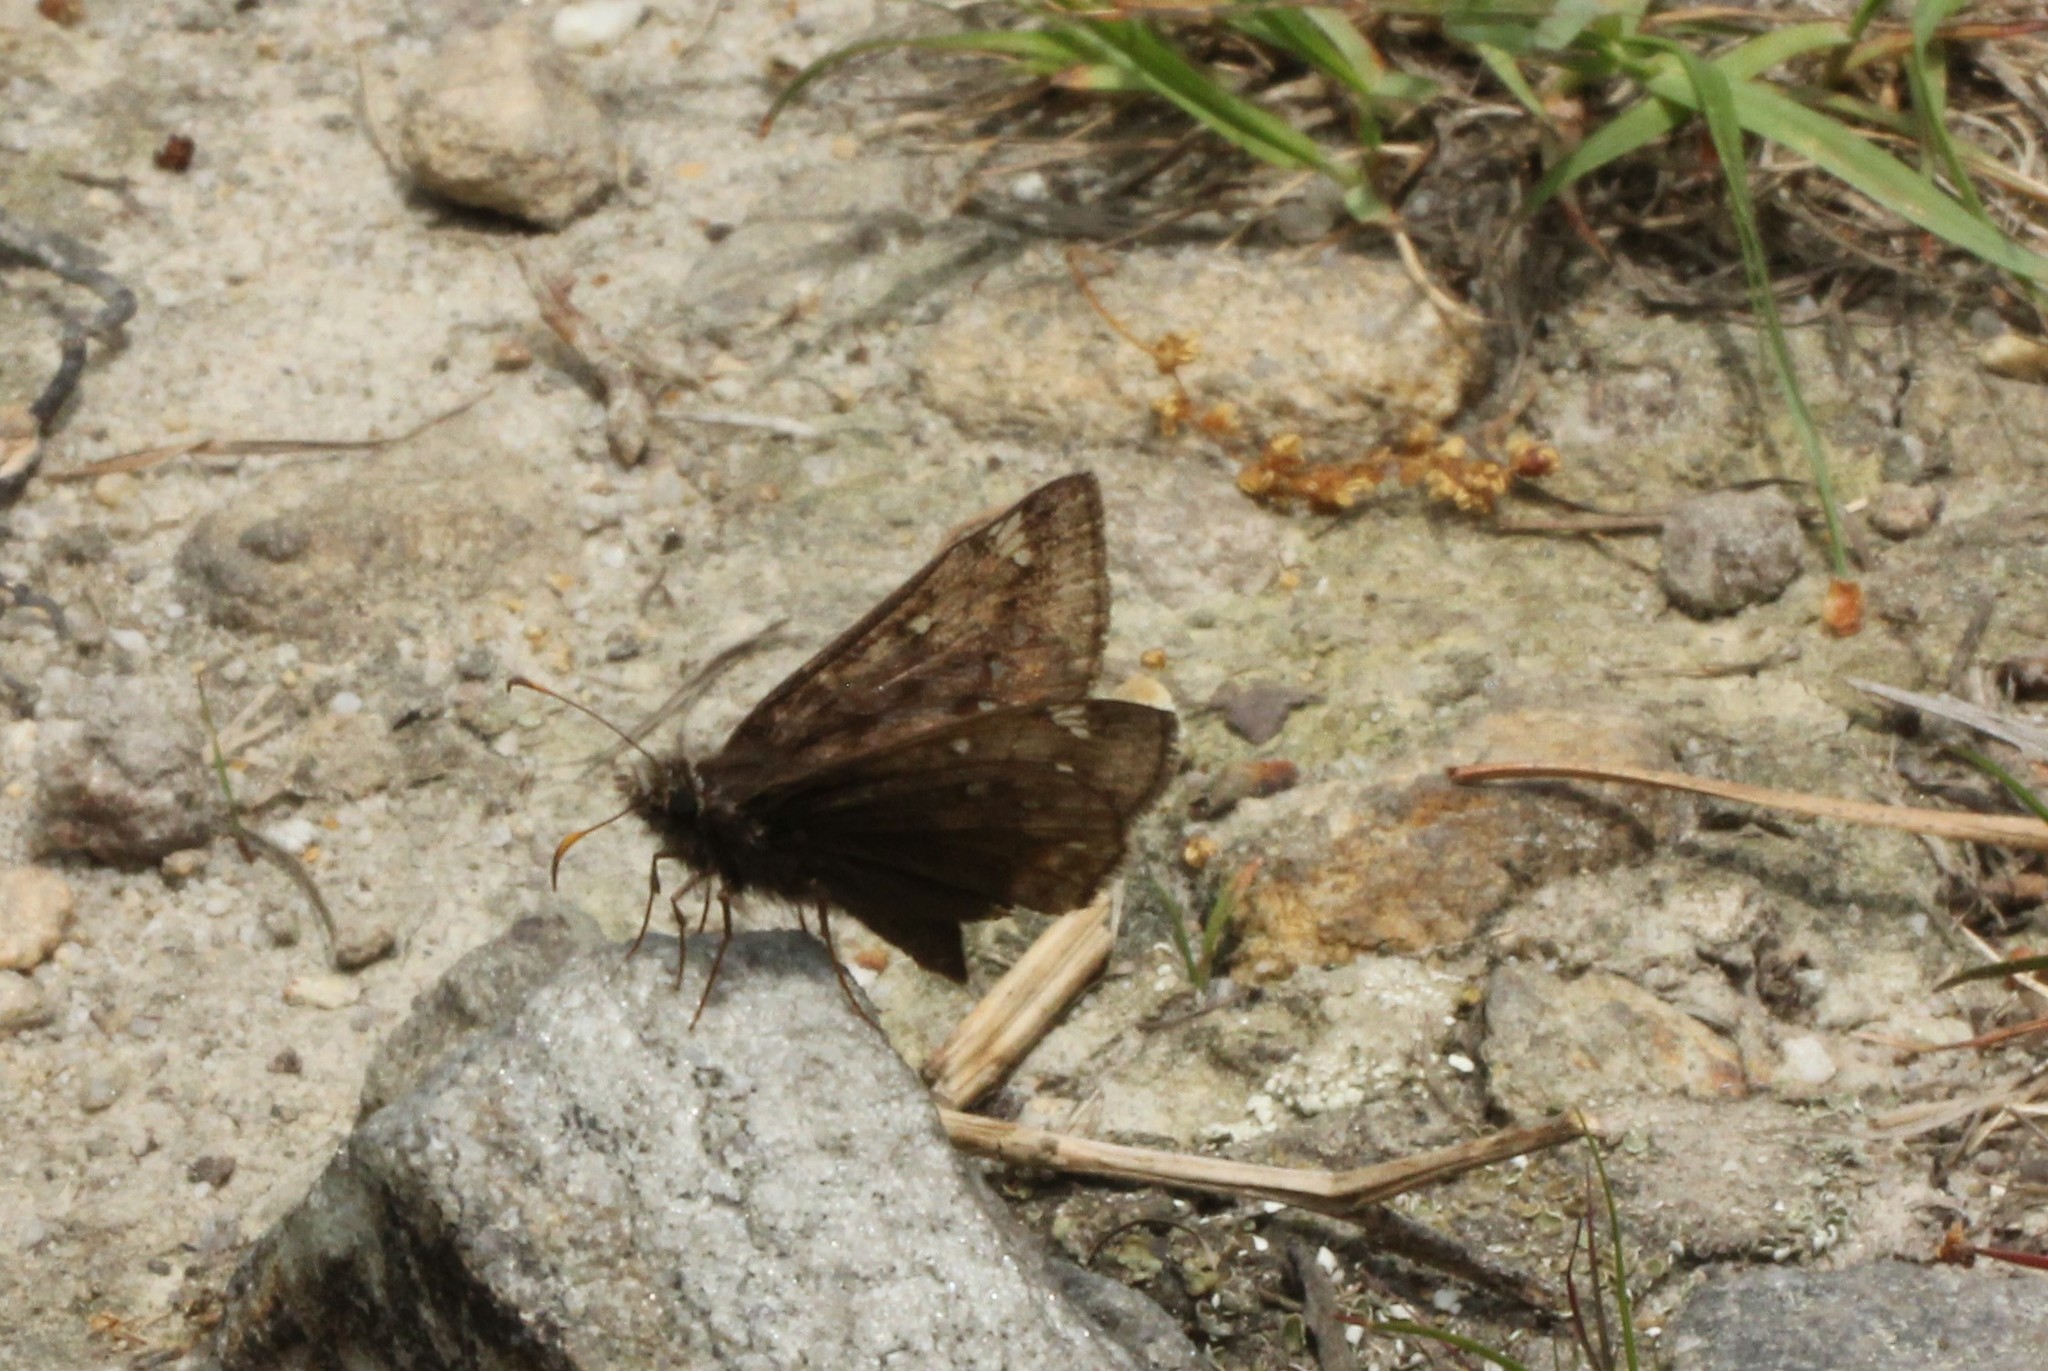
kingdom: Animalia
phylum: Arthropoda
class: Insecta
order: Lepidoptera
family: Hesperiidae
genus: Erynnis
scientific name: Erynnis juvenalis
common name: Juvenal's duskywing
